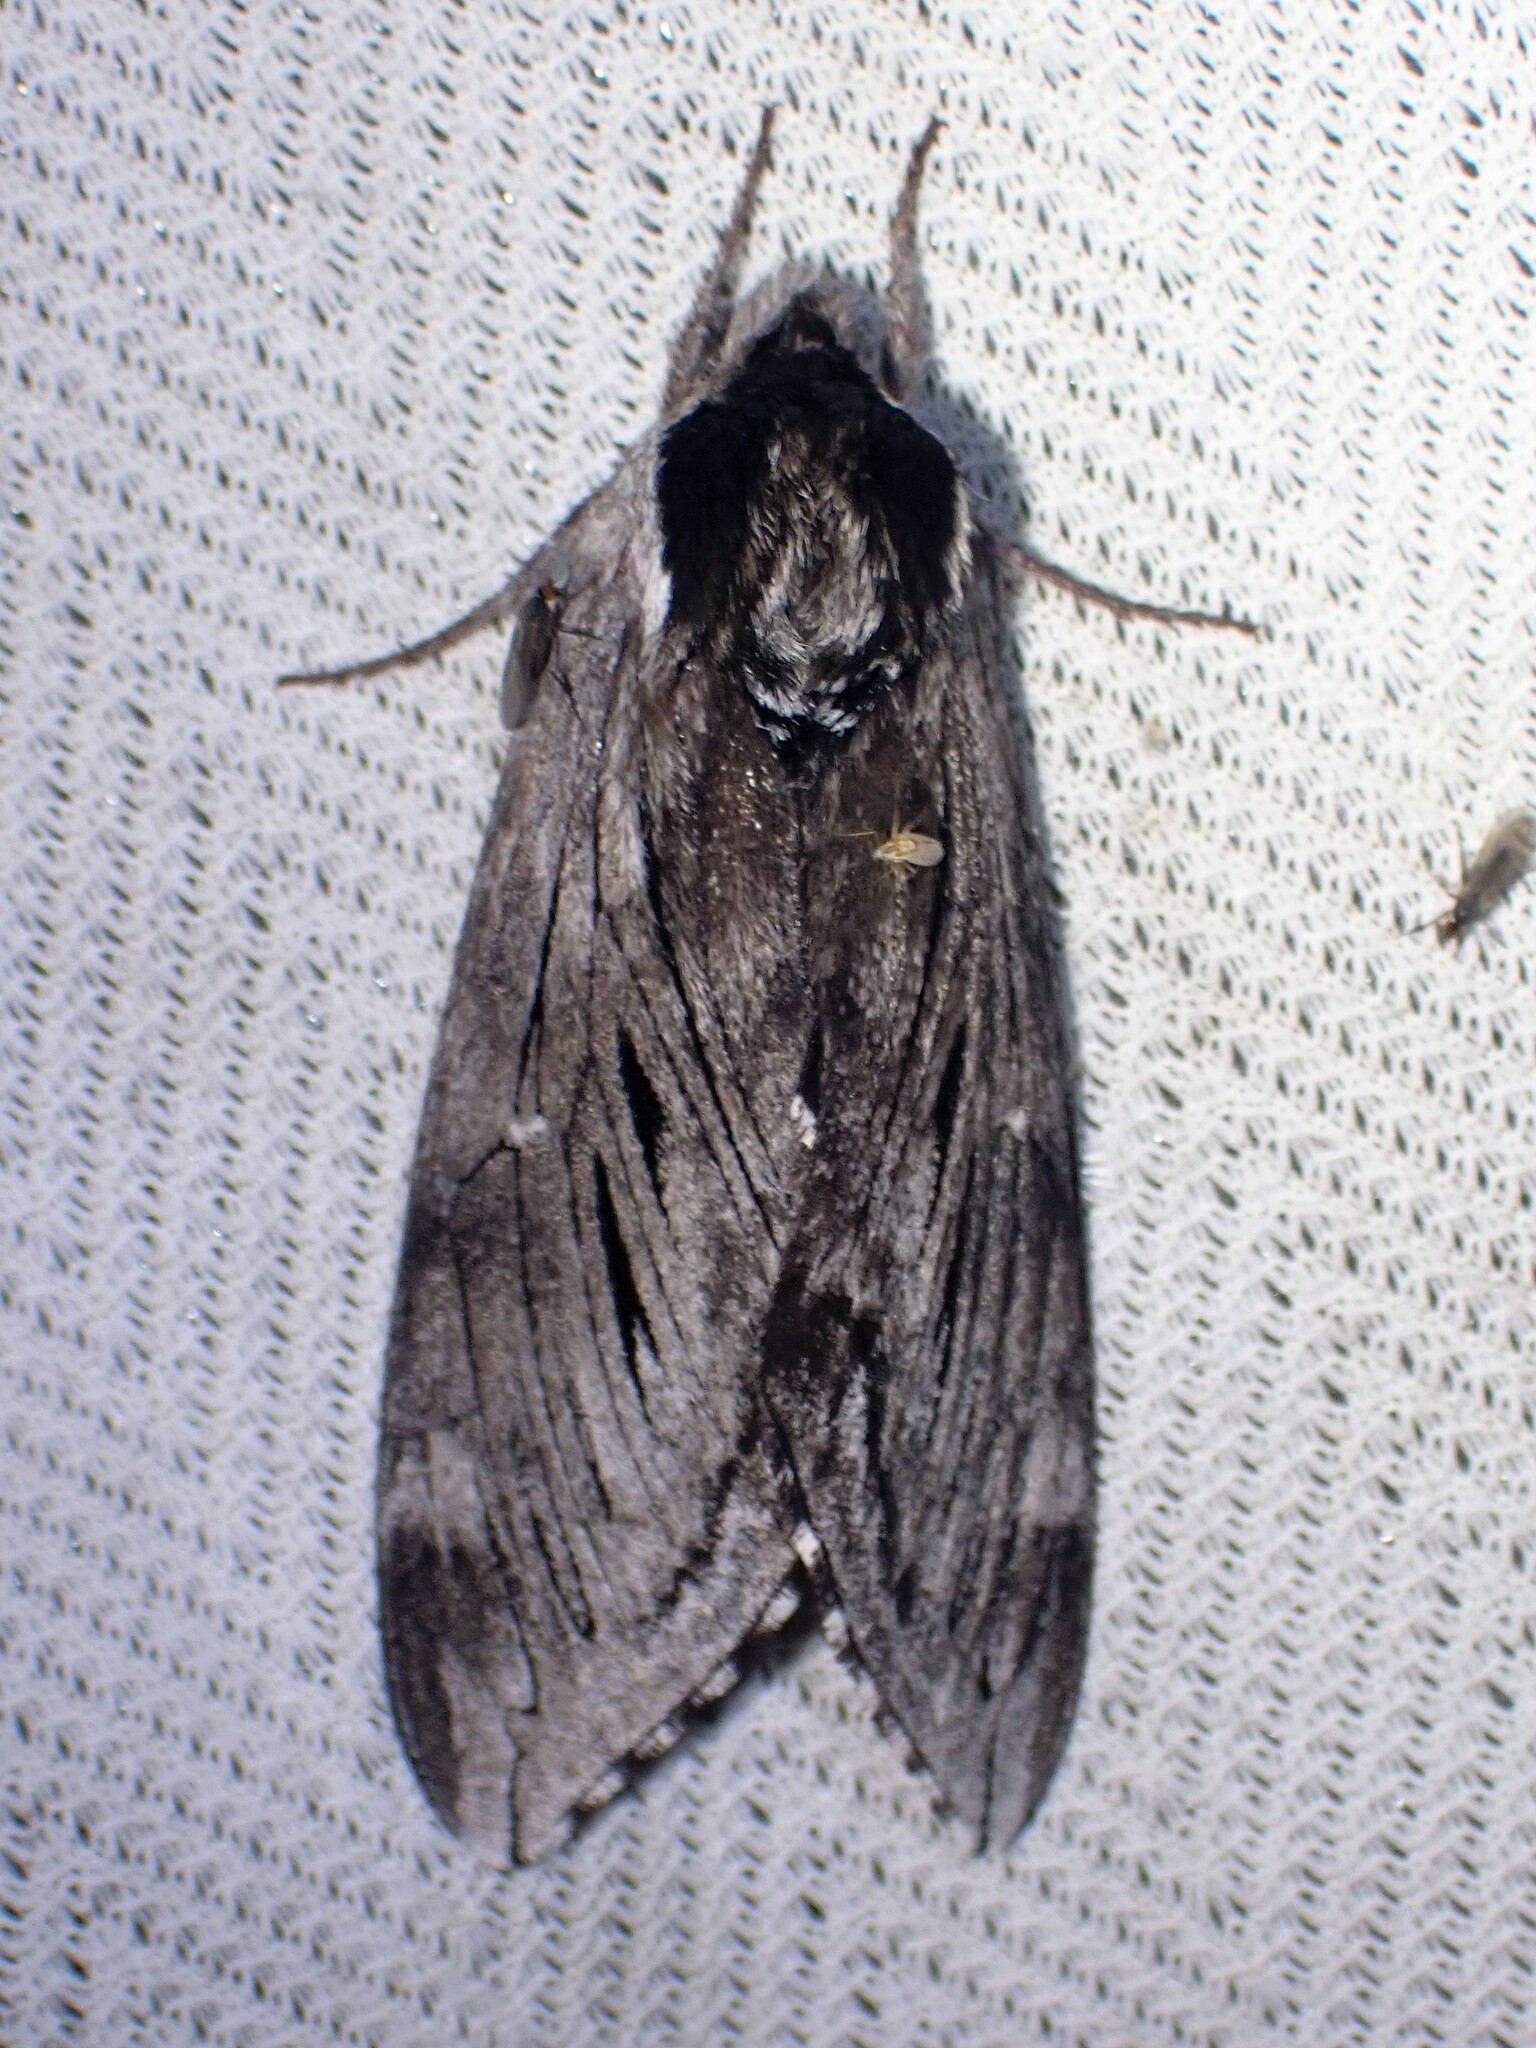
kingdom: Animalia
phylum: Arthropoda
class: Insecta
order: Lepidoptera
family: Sphingidae
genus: Sphinx
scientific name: Sphinx poecila
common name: Northern apple sphinx
